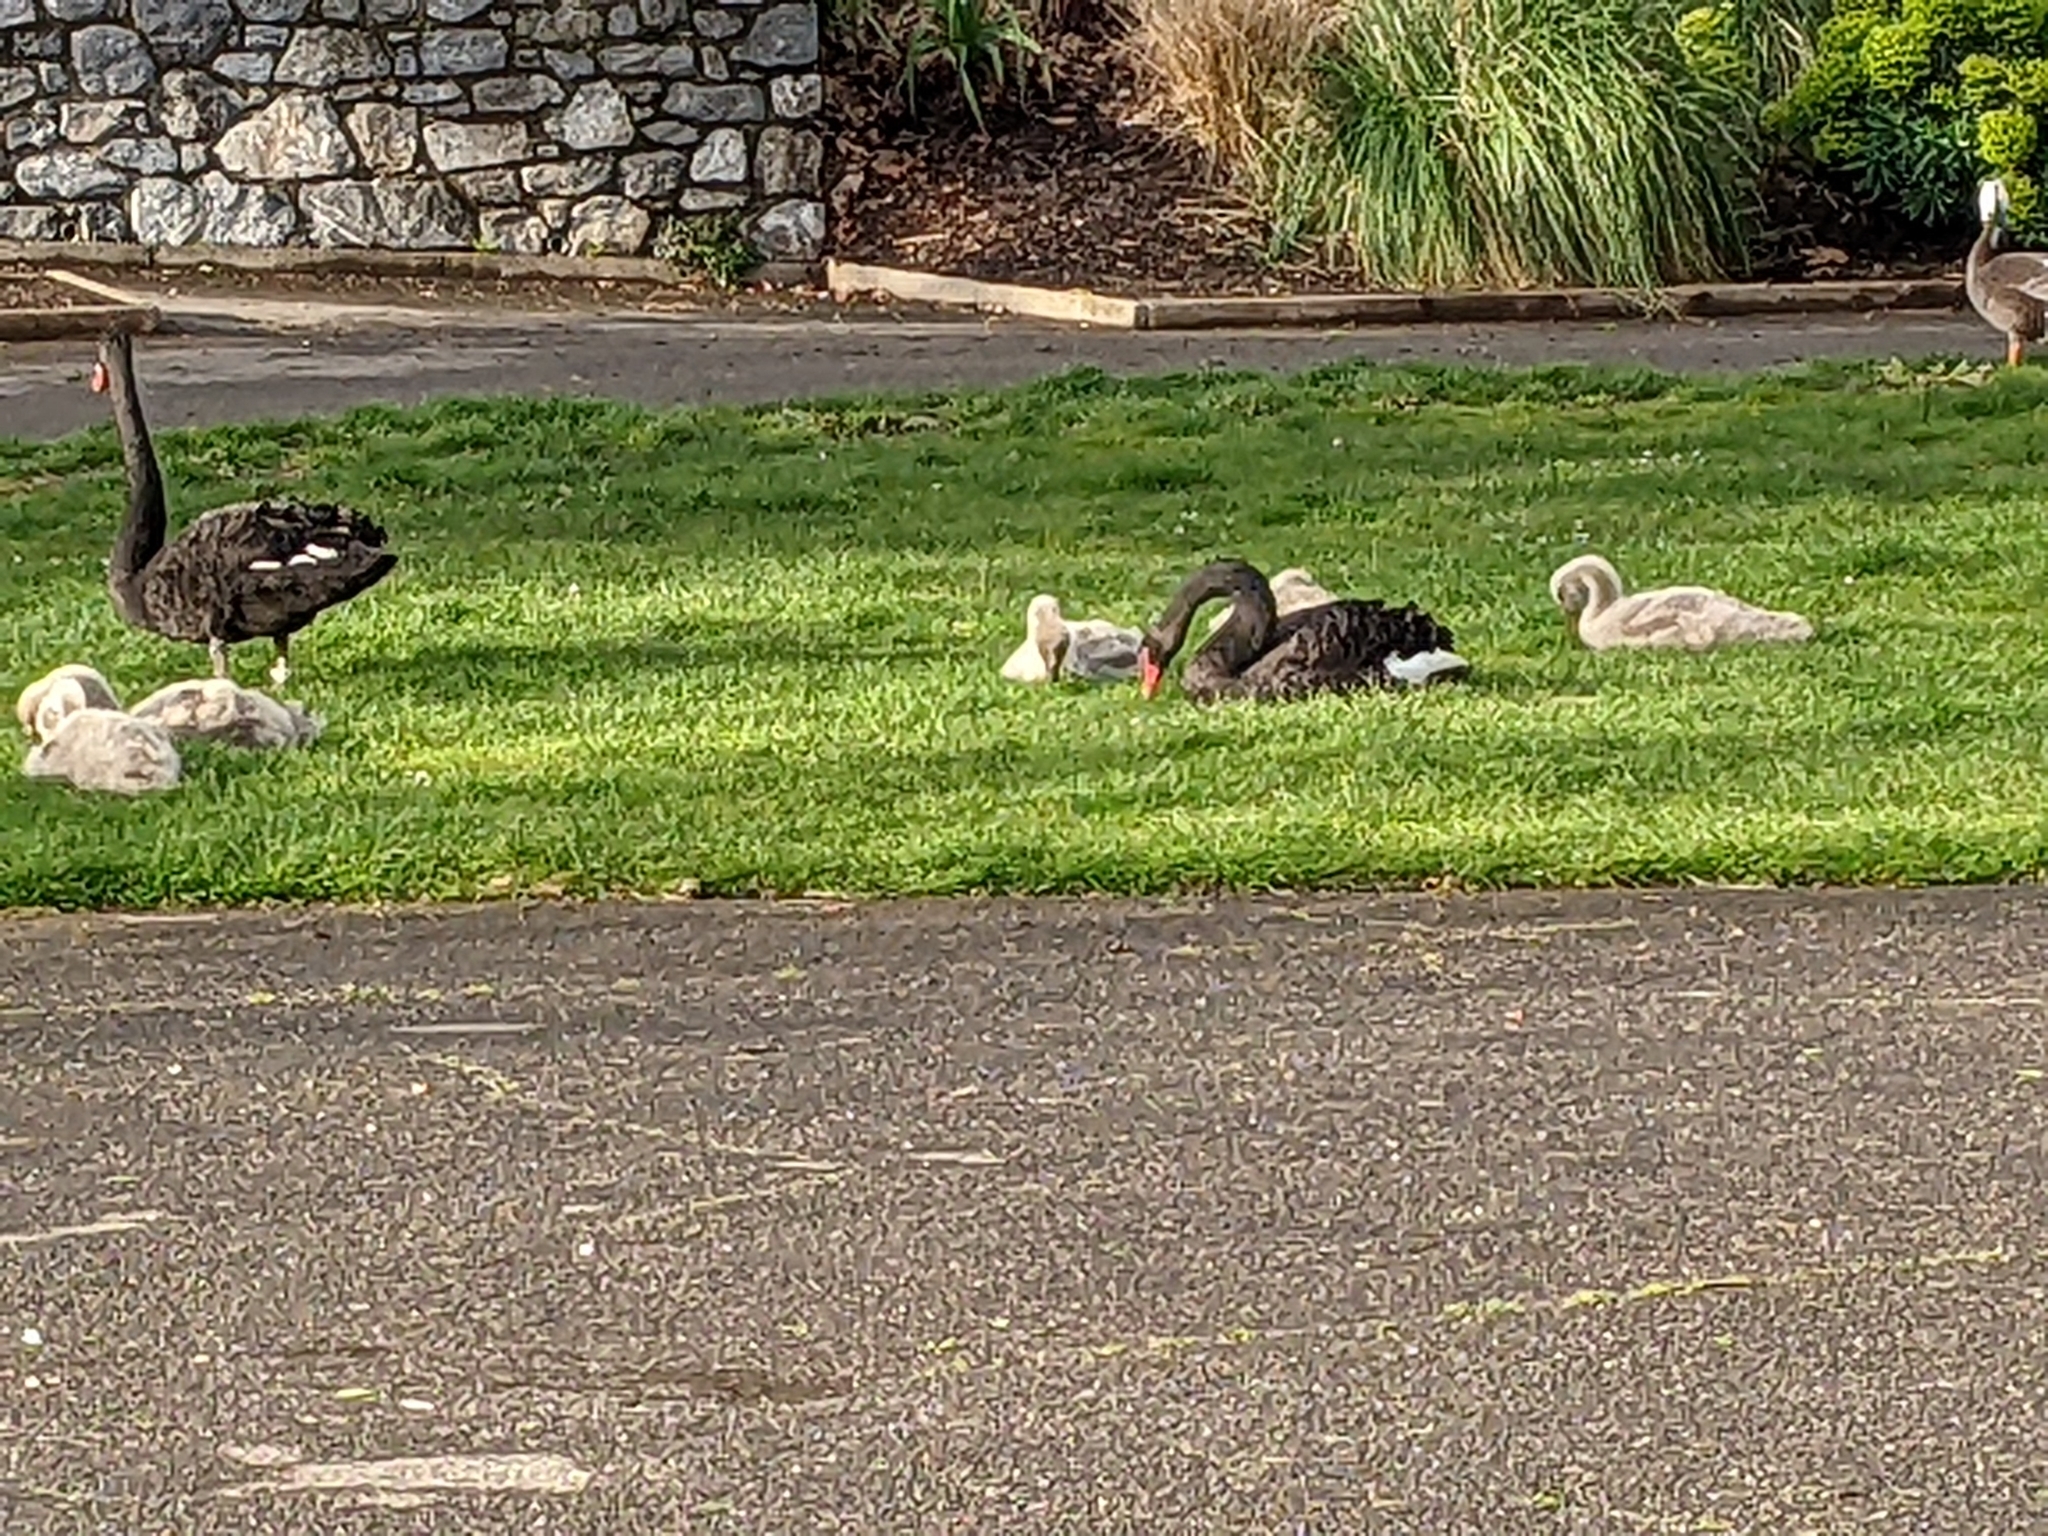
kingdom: Animalia
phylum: Chordata
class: Aves
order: Anseriformes
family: Anatidae
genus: Cygnus
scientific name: Cygnus atratus
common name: Black swan
